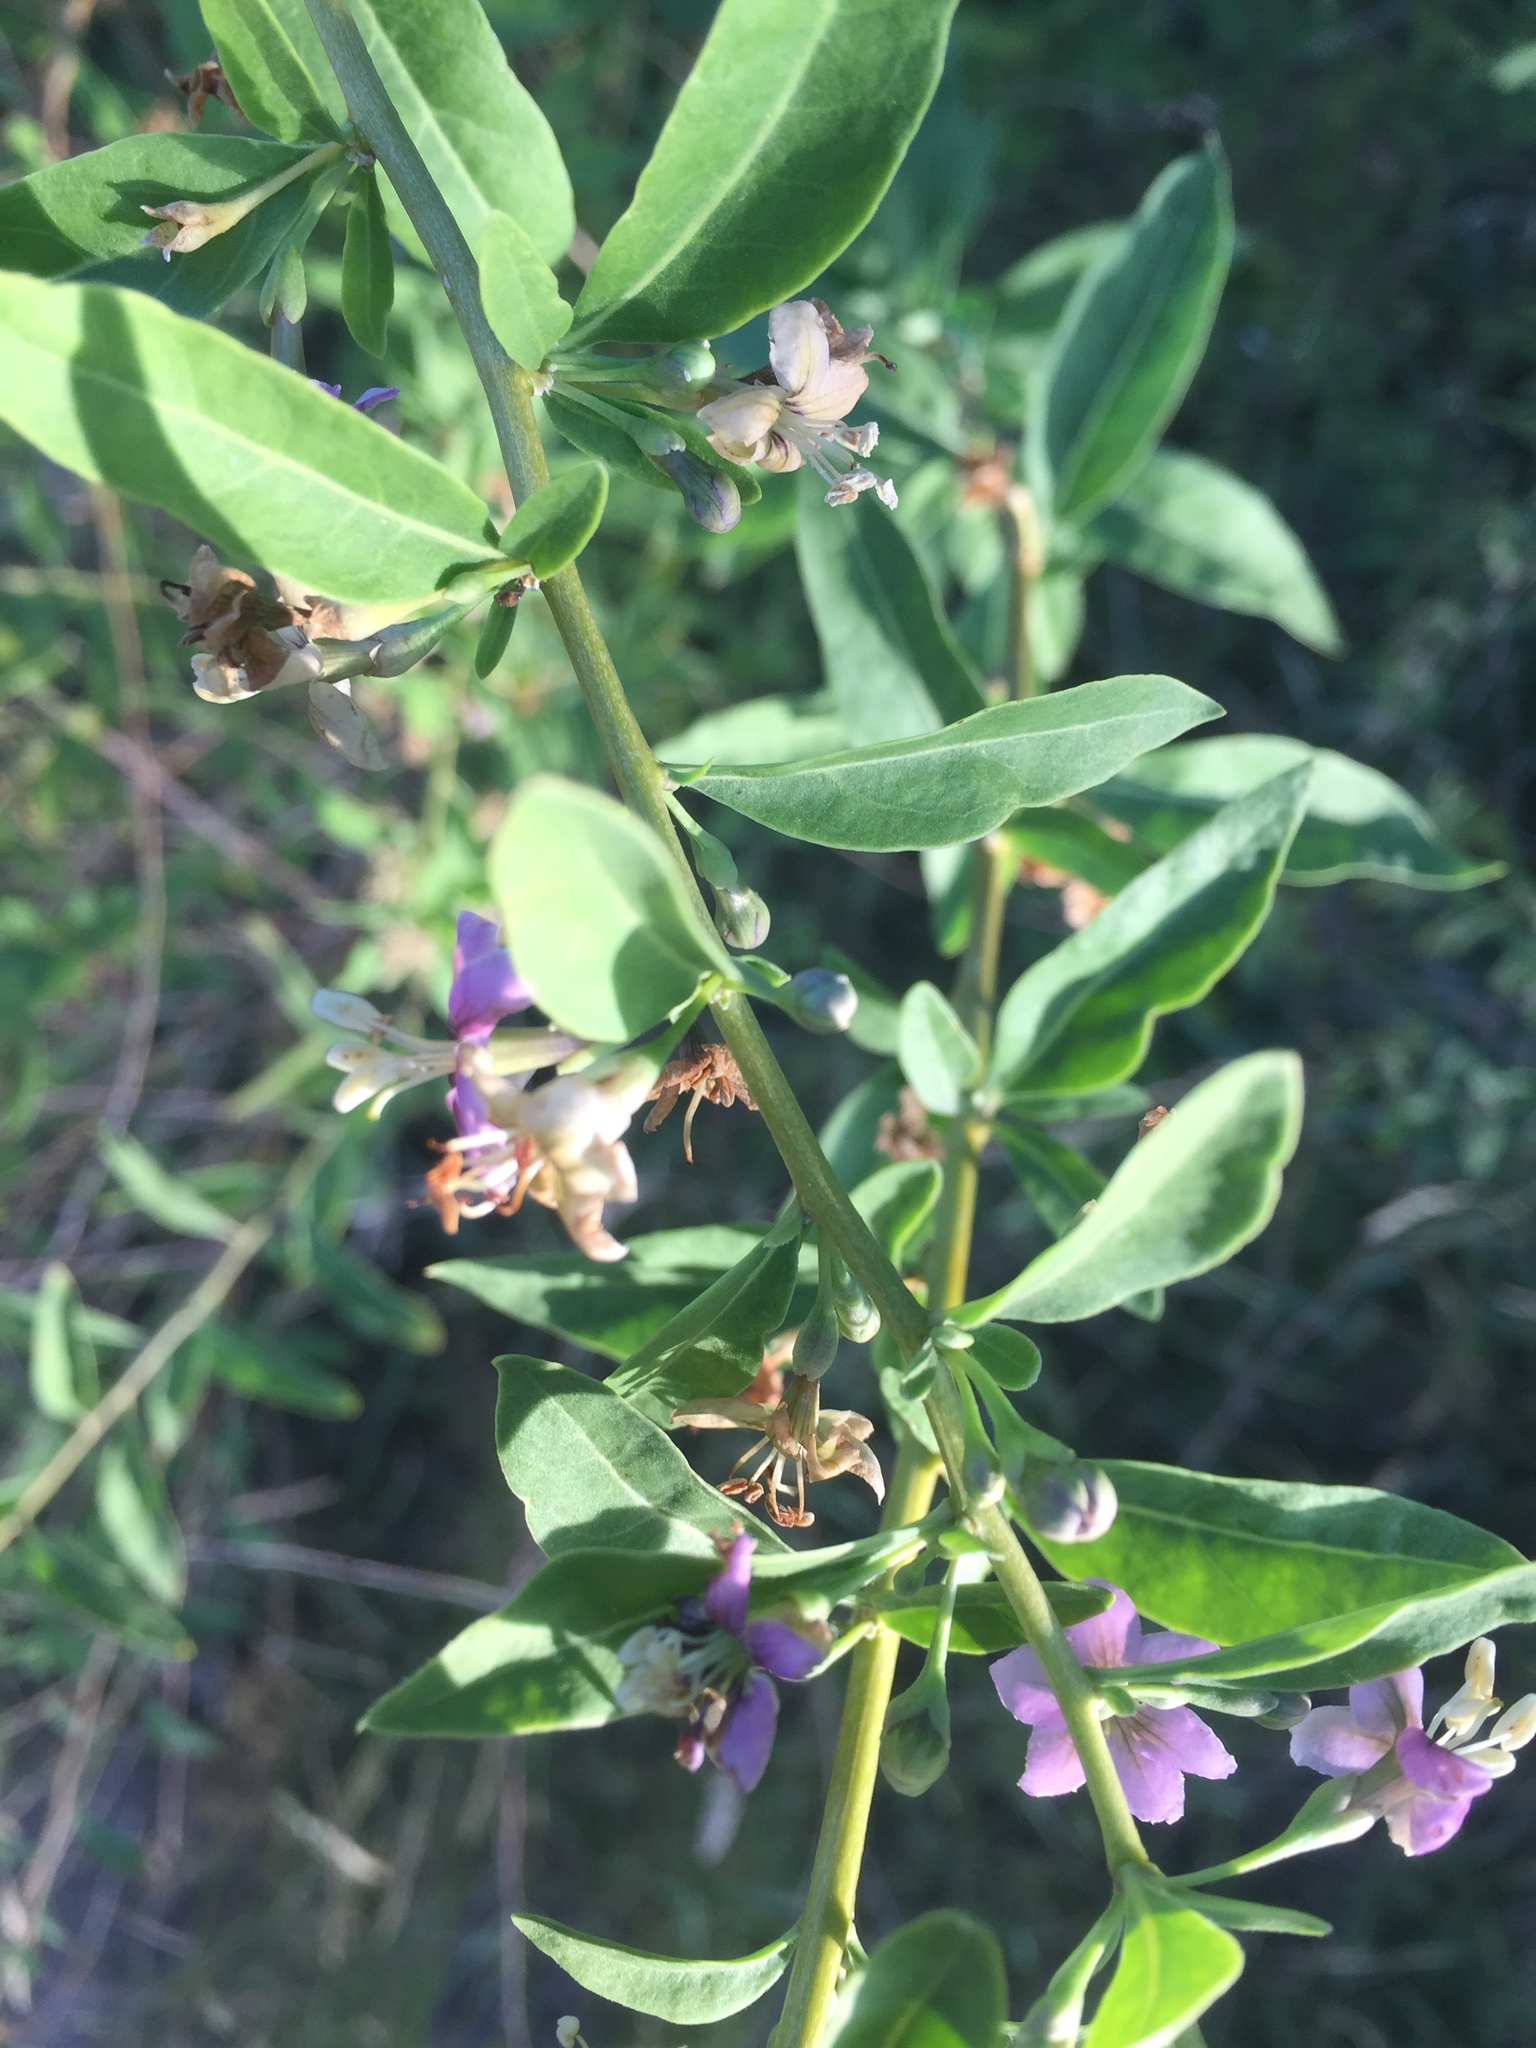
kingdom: Plantae
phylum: Tracheophyta
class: Magnoliopsida
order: Solanales
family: Solanaceae
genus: Lycium
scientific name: Lycium barbarum
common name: Duke of argyll's teaplant
